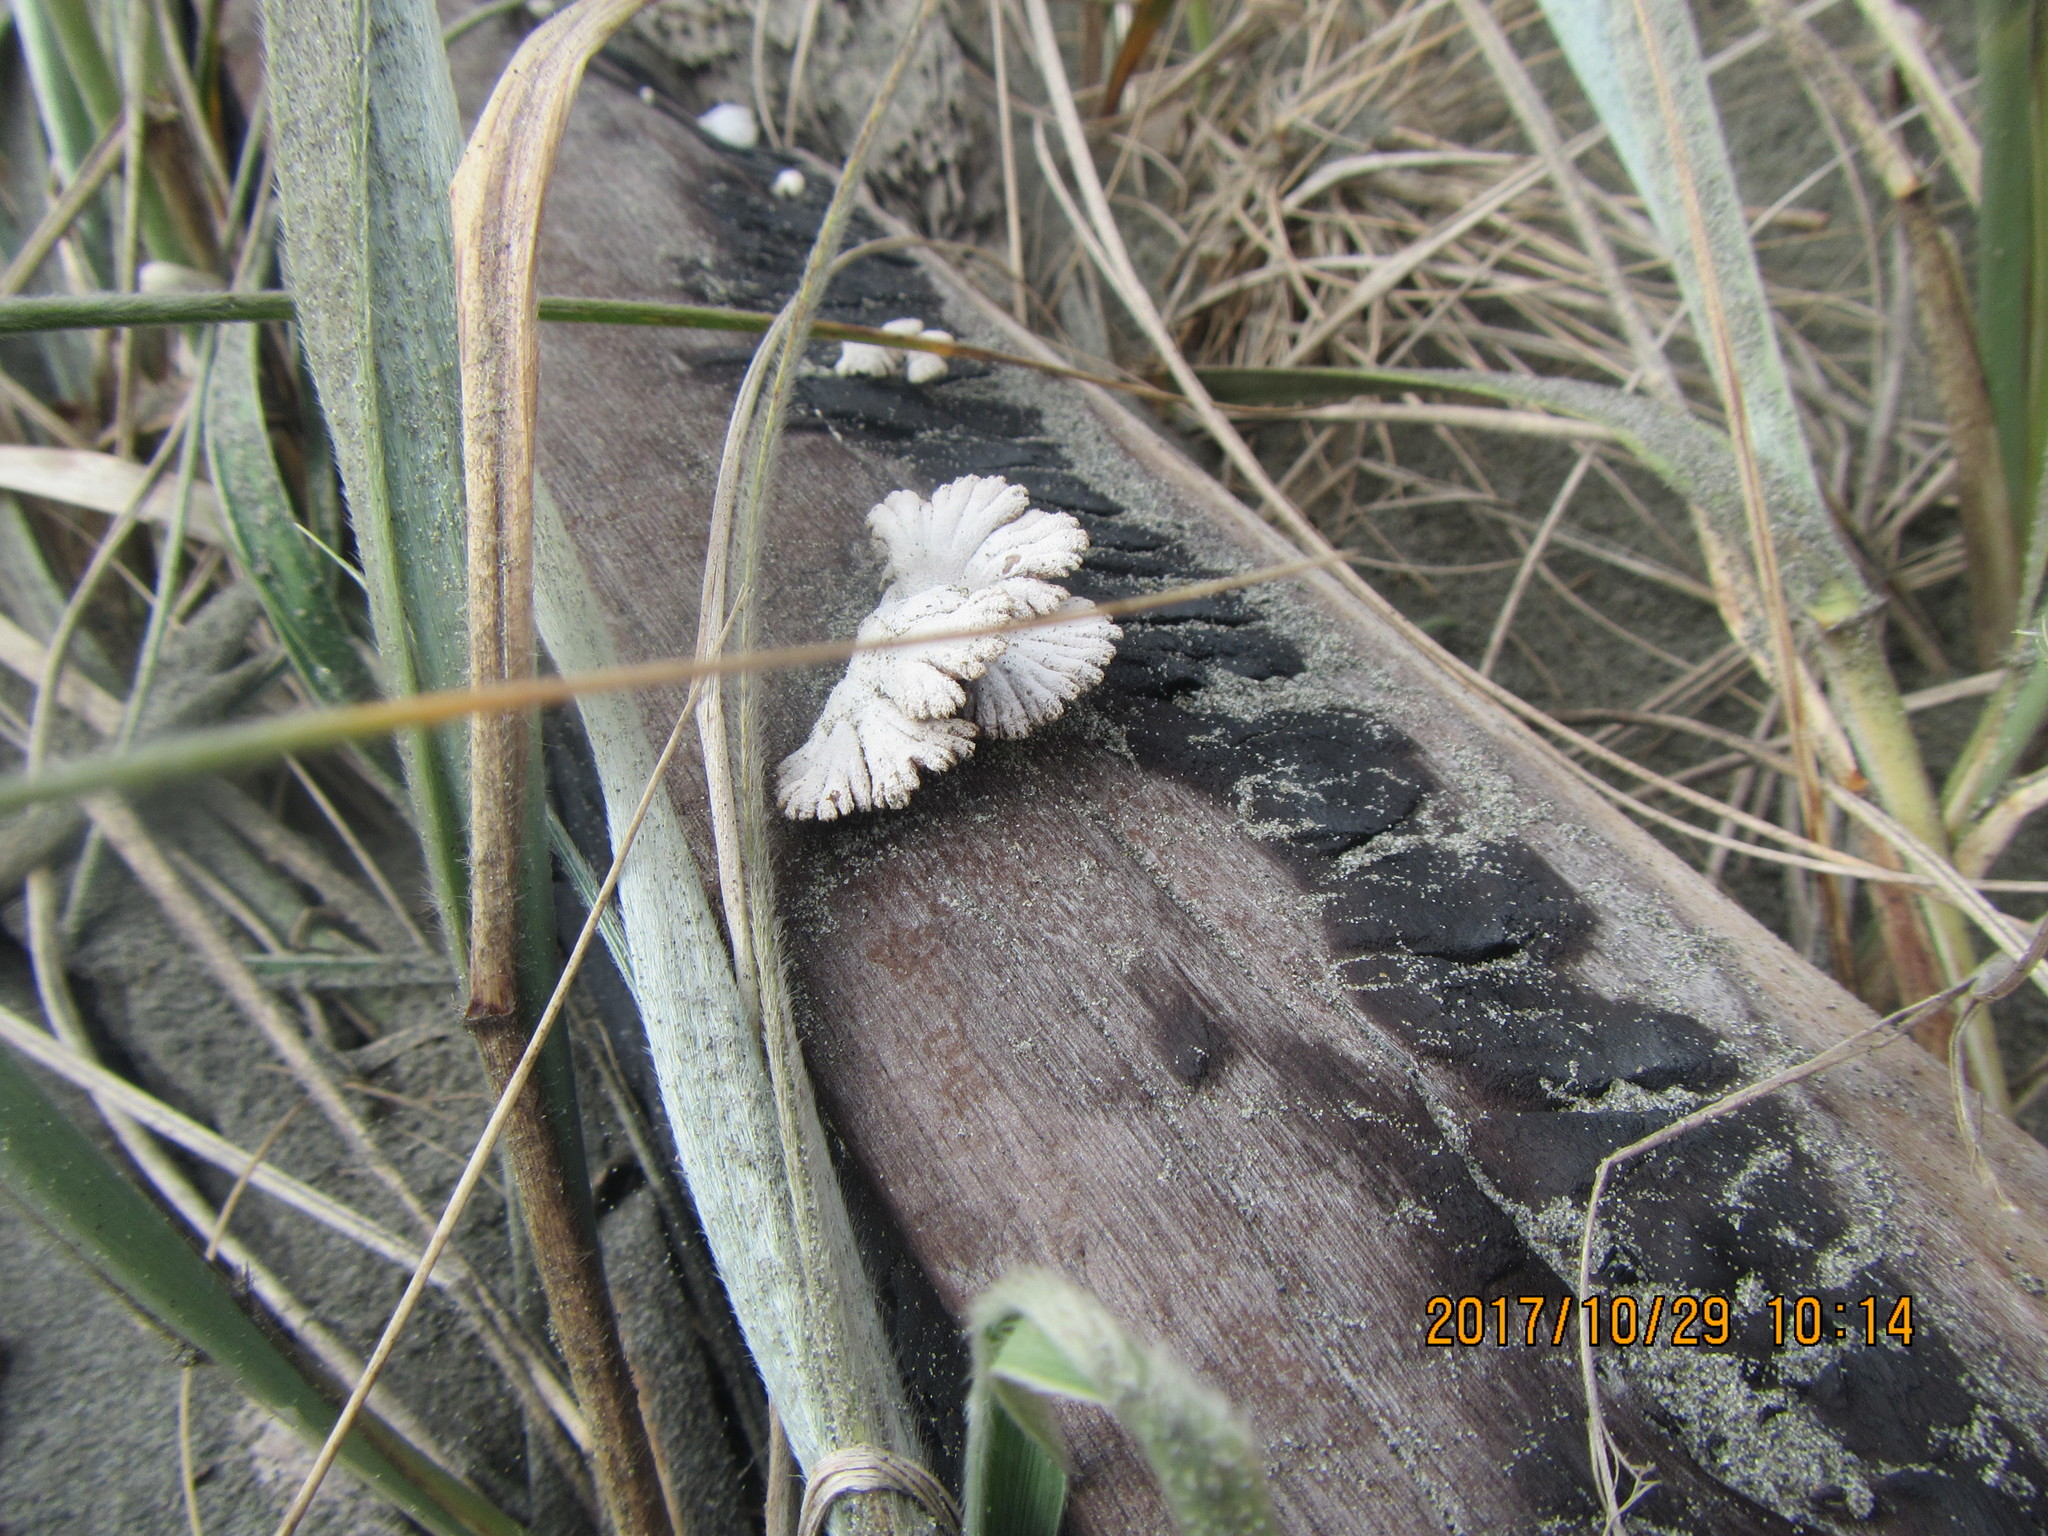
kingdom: Fungi
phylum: Basidiomycota
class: Agaricomycetes
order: Agaricales
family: Schizophyllaceae
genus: Schizophyllum
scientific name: Schizophyllum commune
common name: Common porecrust
